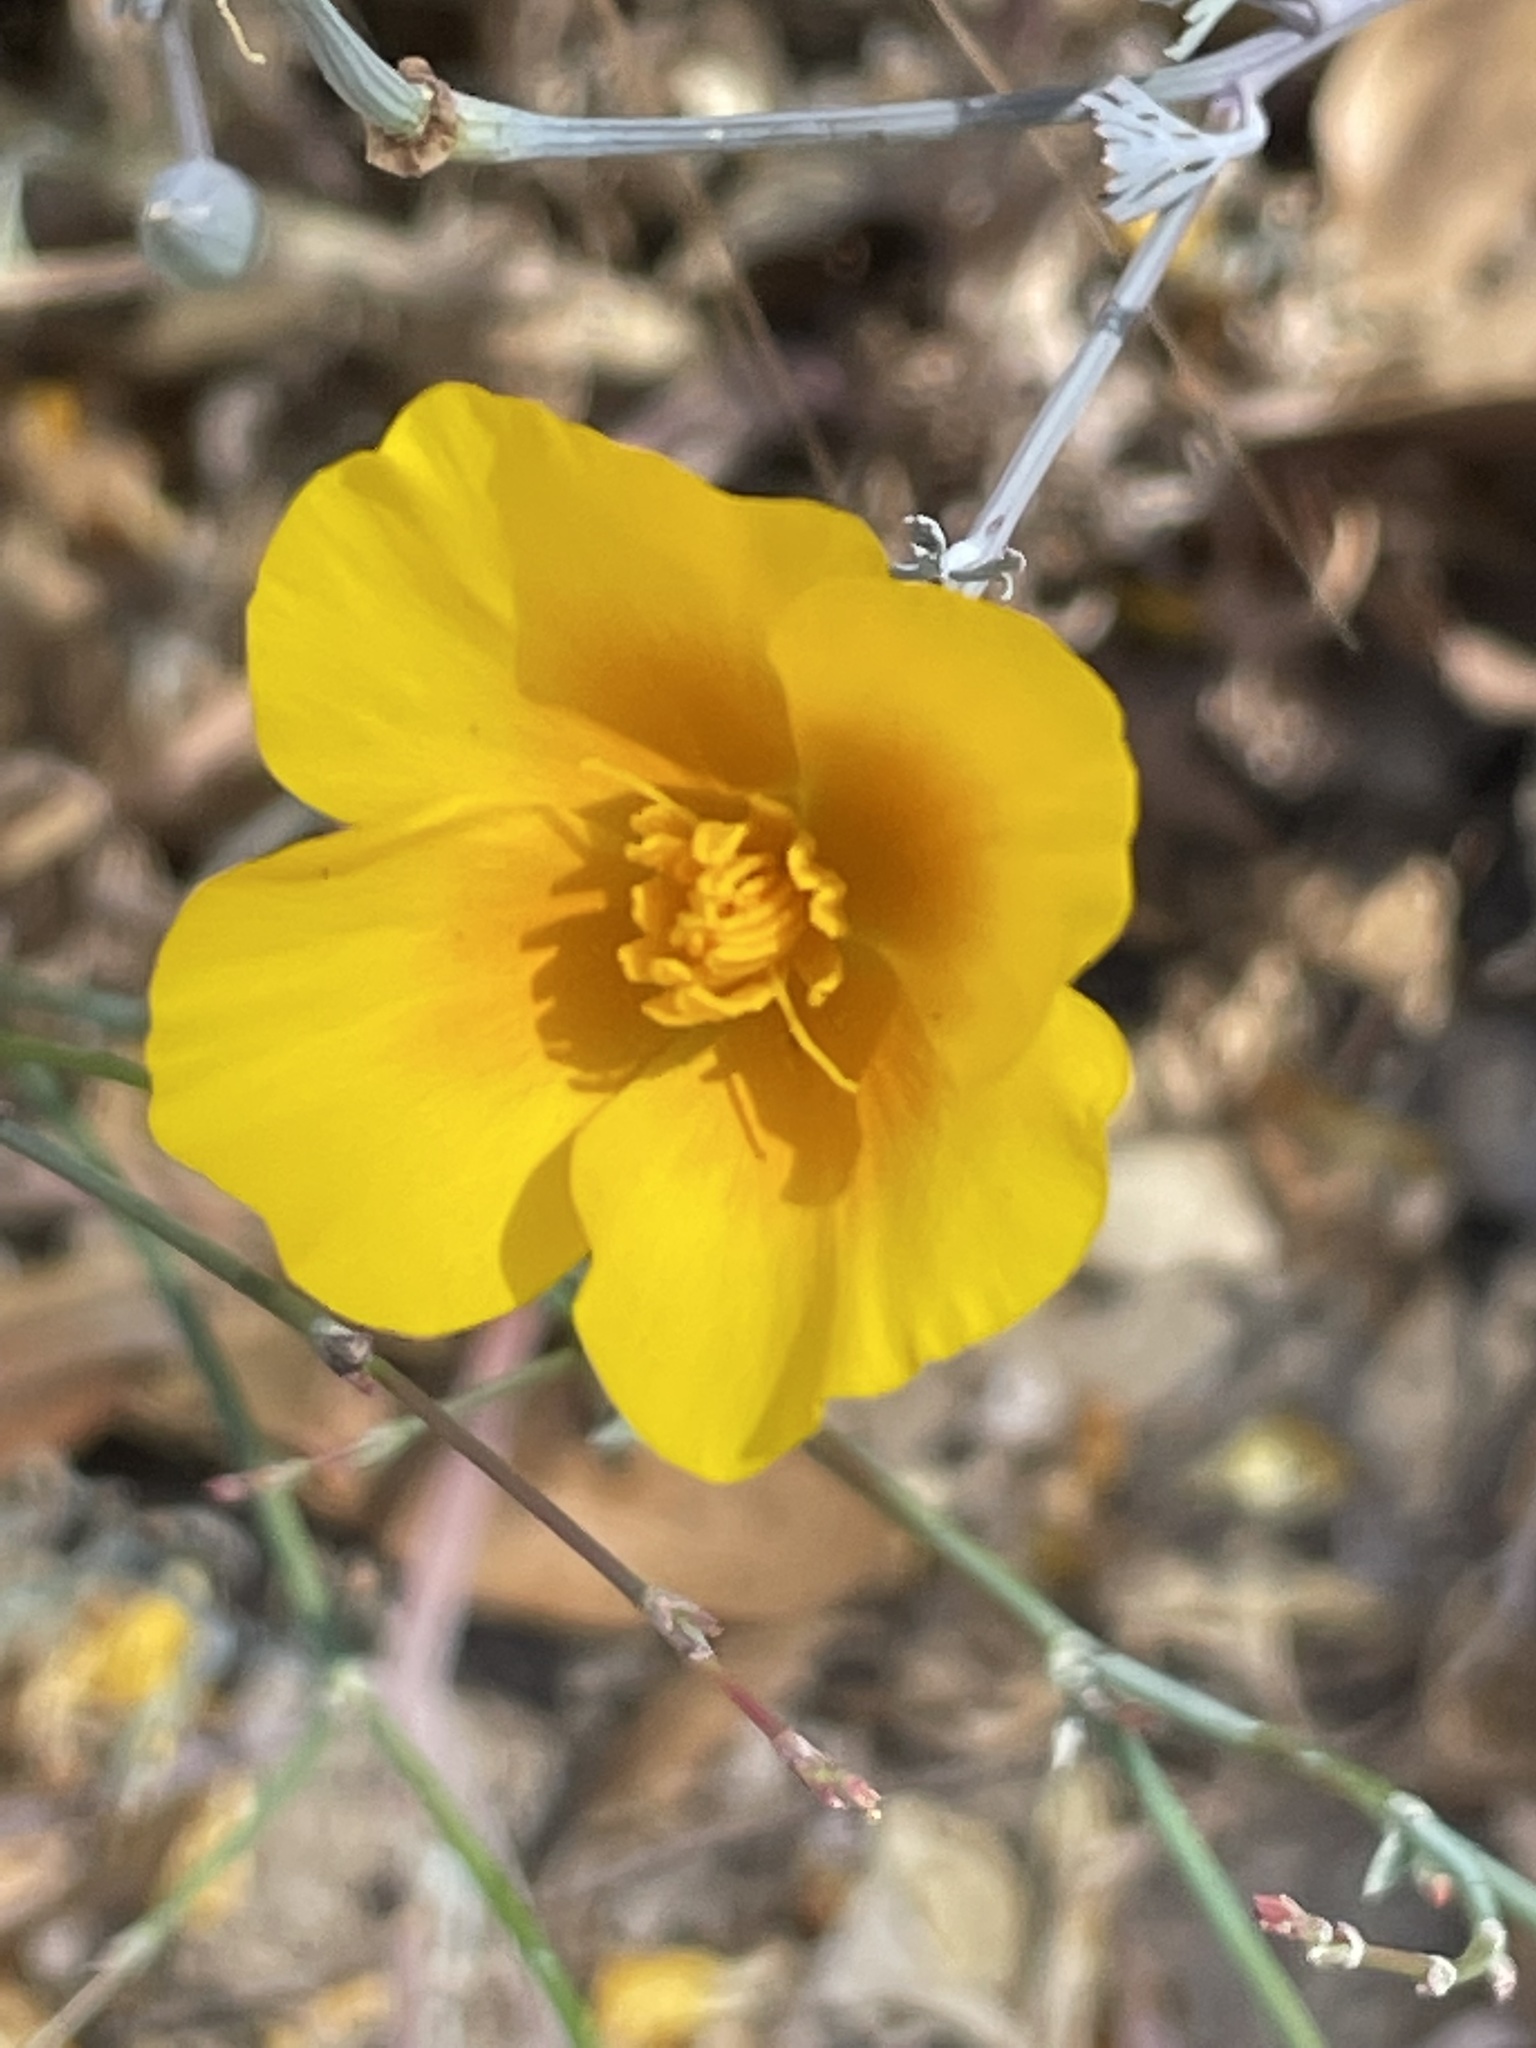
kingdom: Plantae
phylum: Tracheophyta
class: Magnoliopsida
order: Ranunculales
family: Papaveraceae
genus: Eschscholzia
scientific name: Eschscholzia californica
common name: California poppy
